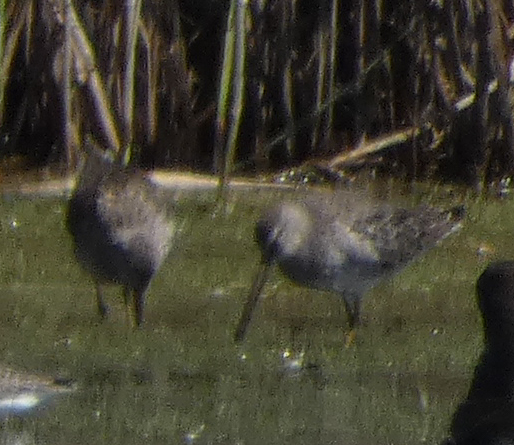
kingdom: Animalia
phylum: Chordata
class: Aves
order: Charadriiformes
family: Scolopacidae
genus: Limnodromus
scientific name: Limnodromus
